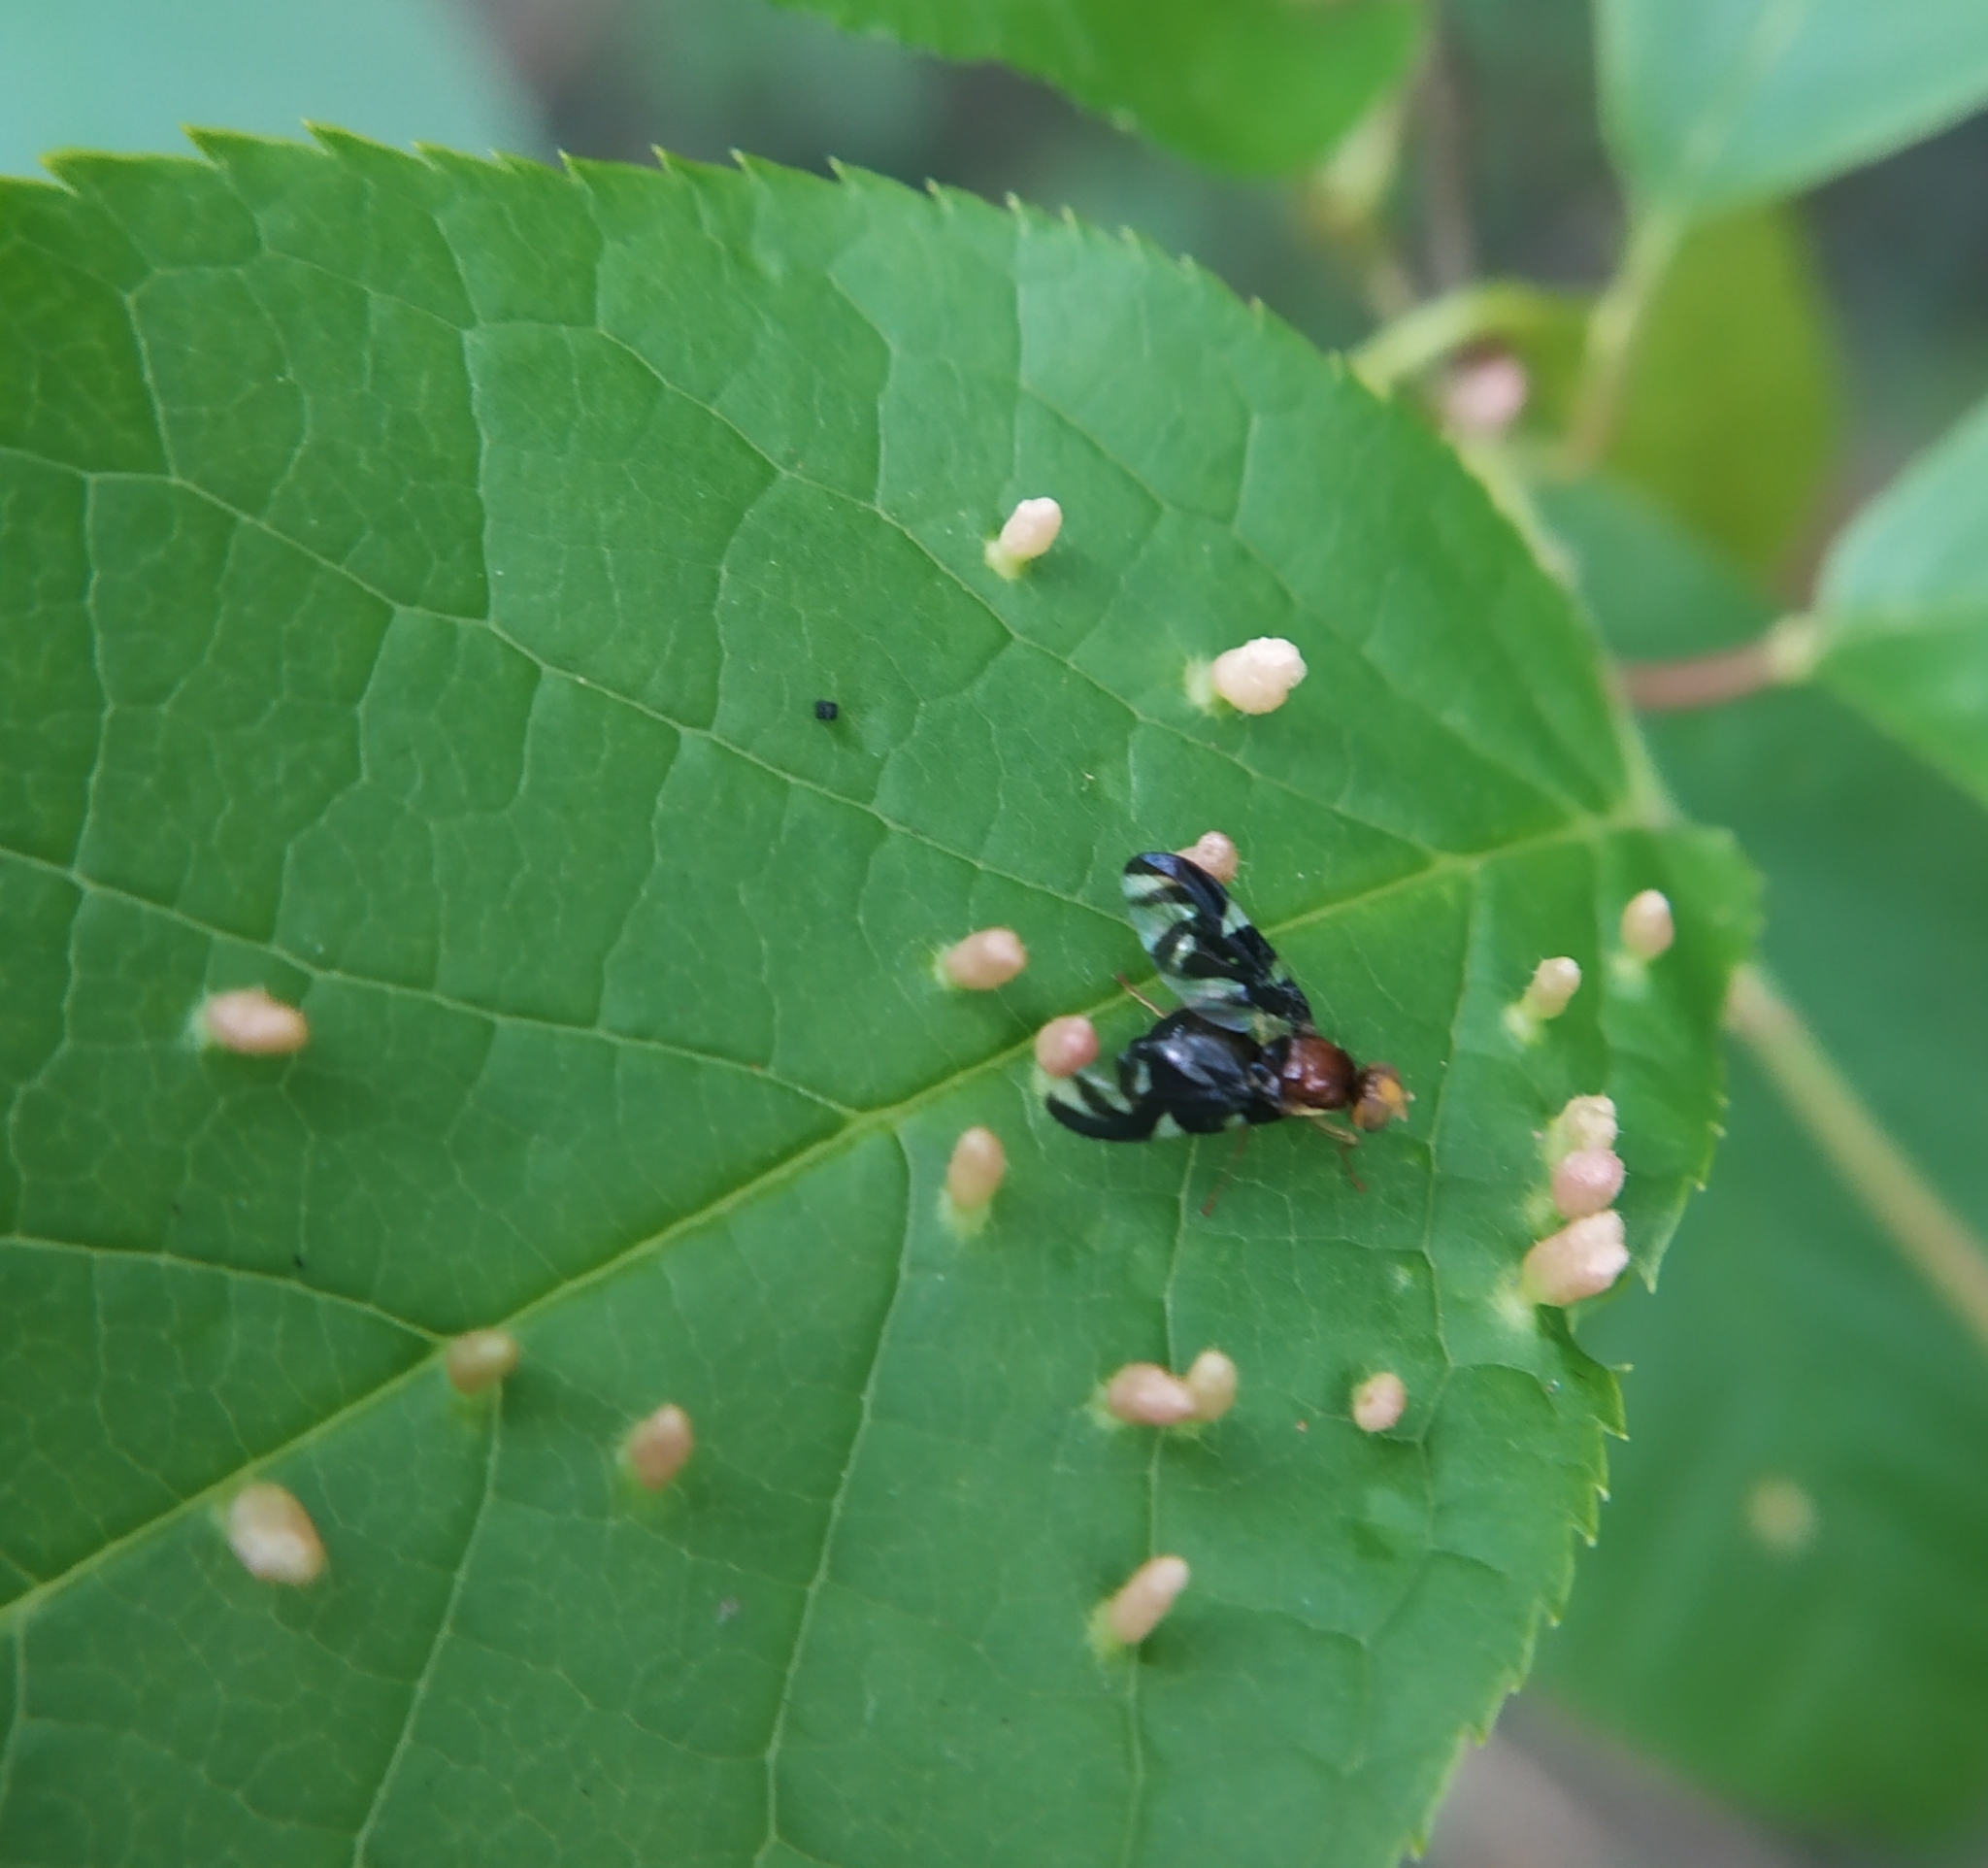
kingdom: Animalia
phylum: Arthropoda
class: Insecta
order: Diptera
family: Tephritidae
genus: Euleia
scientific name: Euleia heraclei
